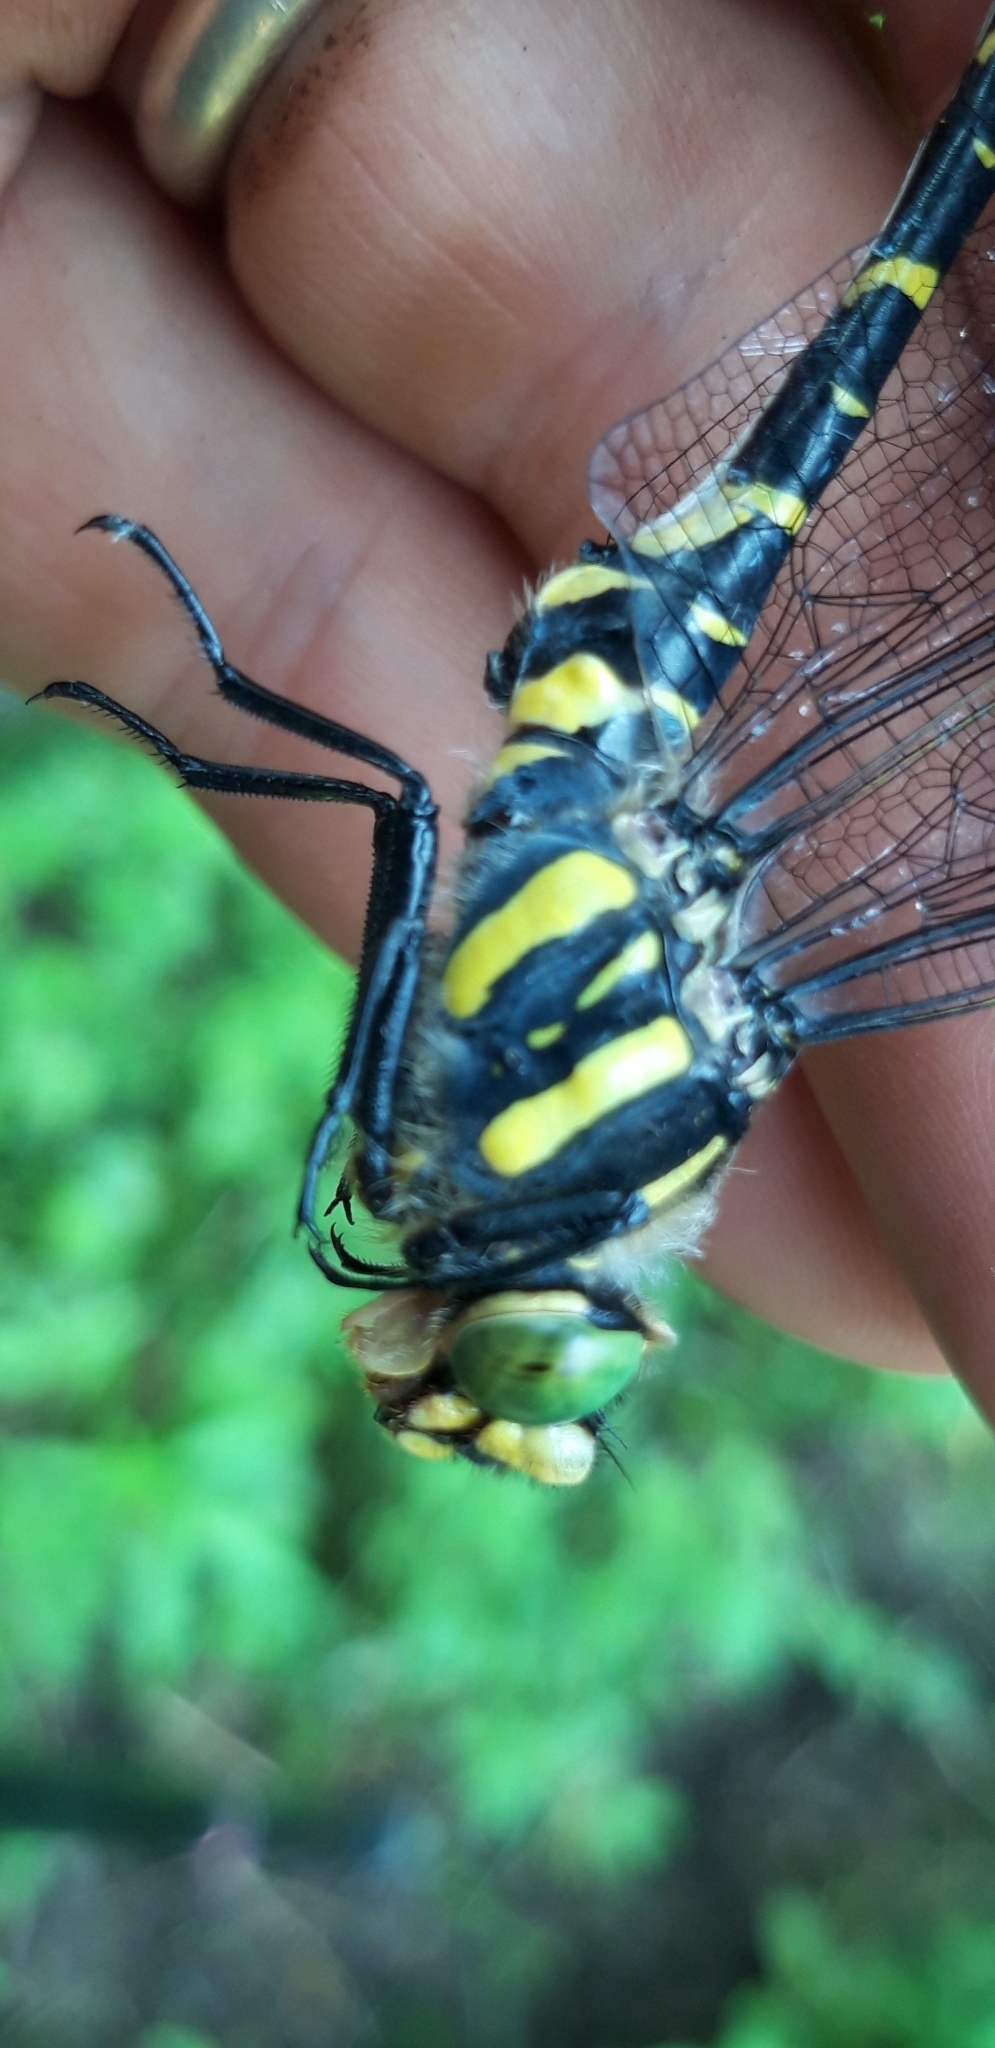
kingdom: Animalia
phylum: Arthropoda
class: Insecta
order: Odonata
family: Cordulegastridae
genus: Cordulegaster
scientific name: Cordulegaster boltonii
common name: Golden-ringed dragonfly
